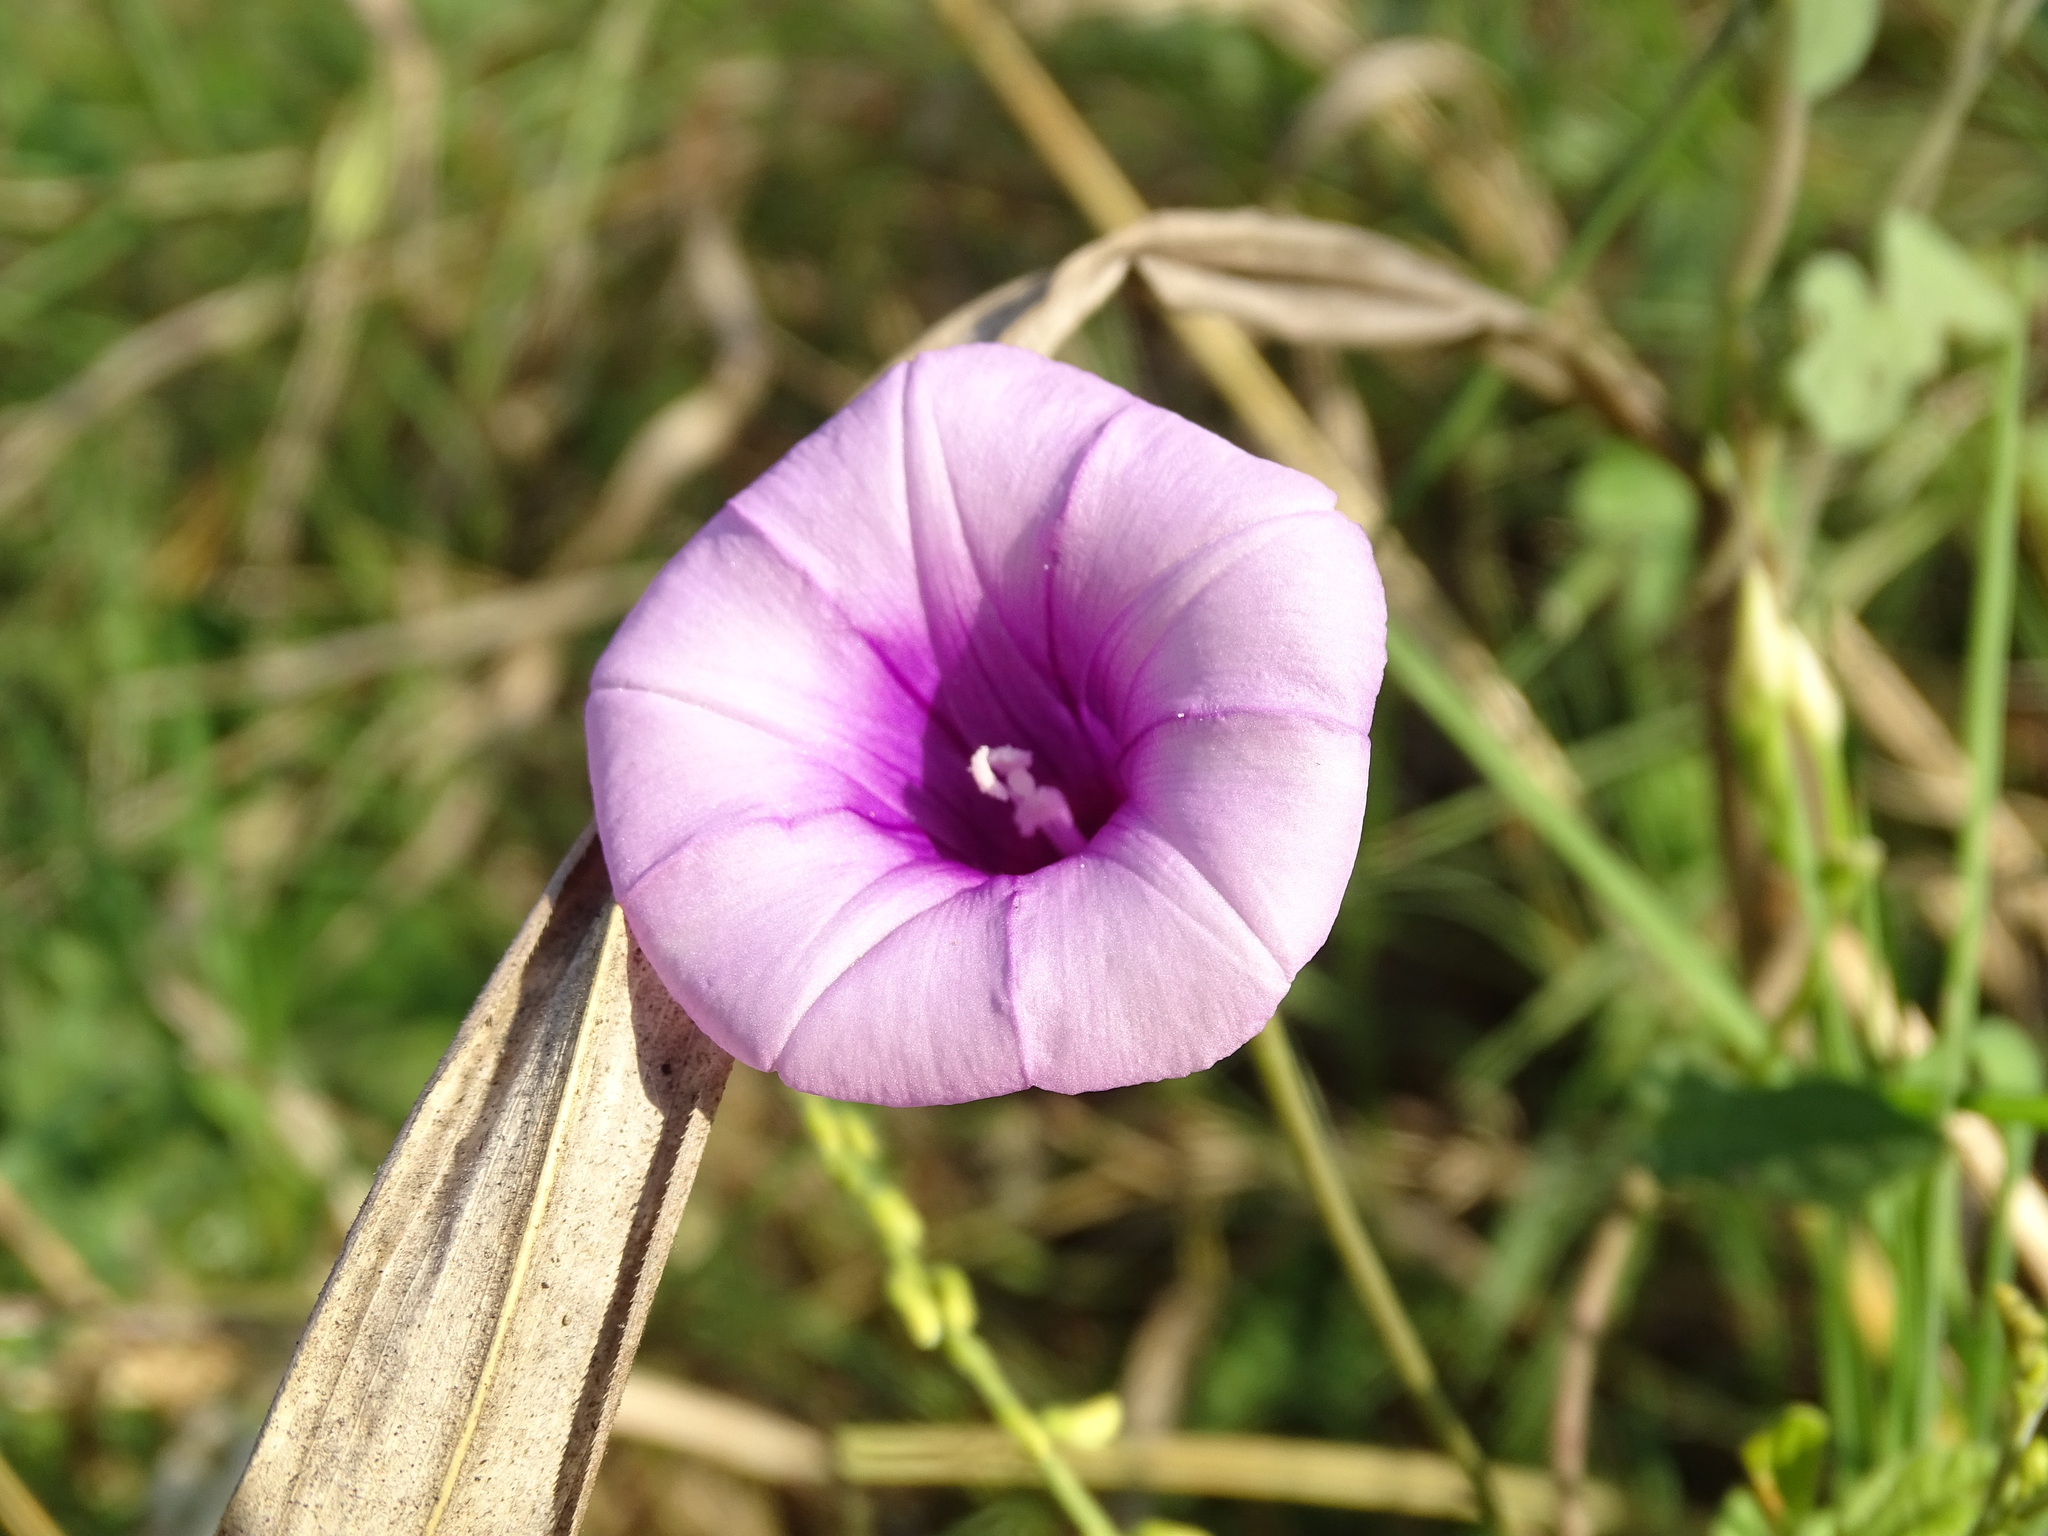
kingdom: Plantae
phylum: Tracheophyta
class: Magnoliopsida
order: Solanales
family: Convolvulaceae
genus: Ipomoea
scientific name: Ipomoea trifida
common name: Cotton morningglory
